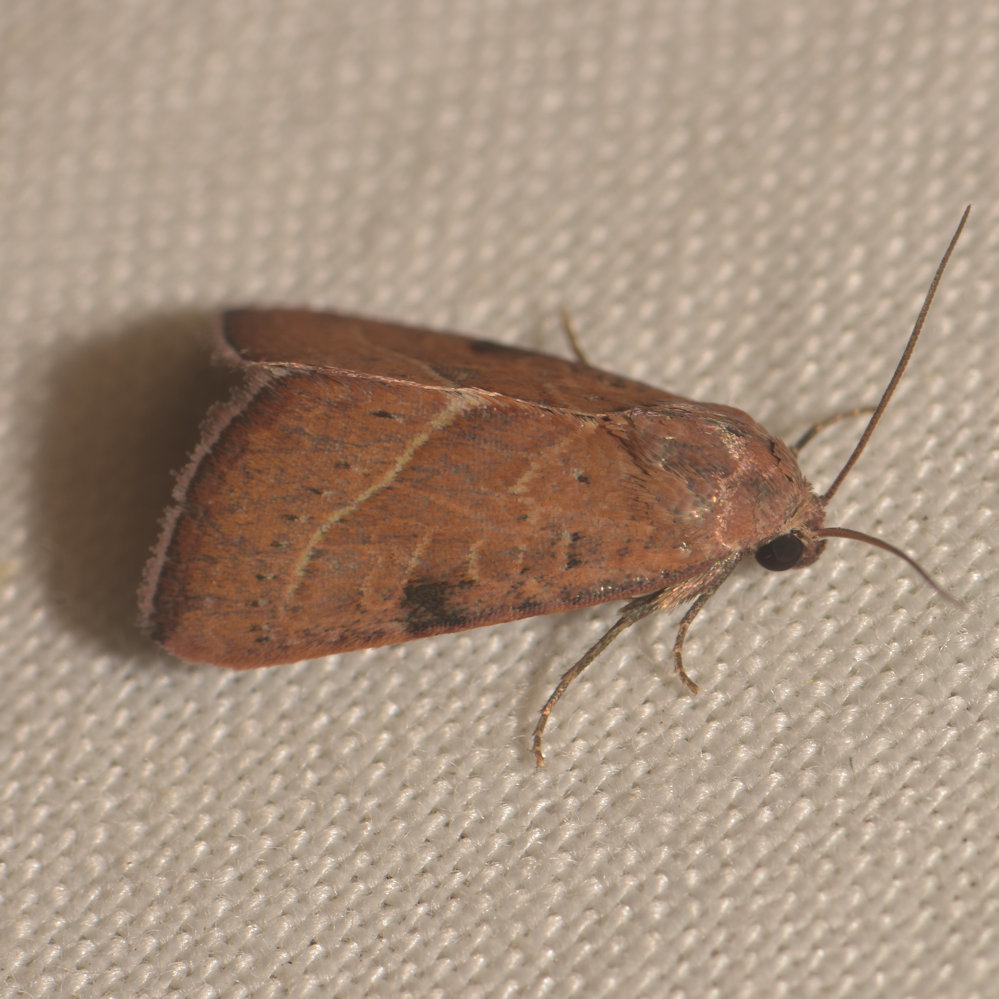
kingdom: Animalia
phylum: Arthropoda
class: Insecta
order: Lepidoptera
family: Noctuidae
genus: Galgula
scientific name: Galgula partita
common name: Wedgeling
